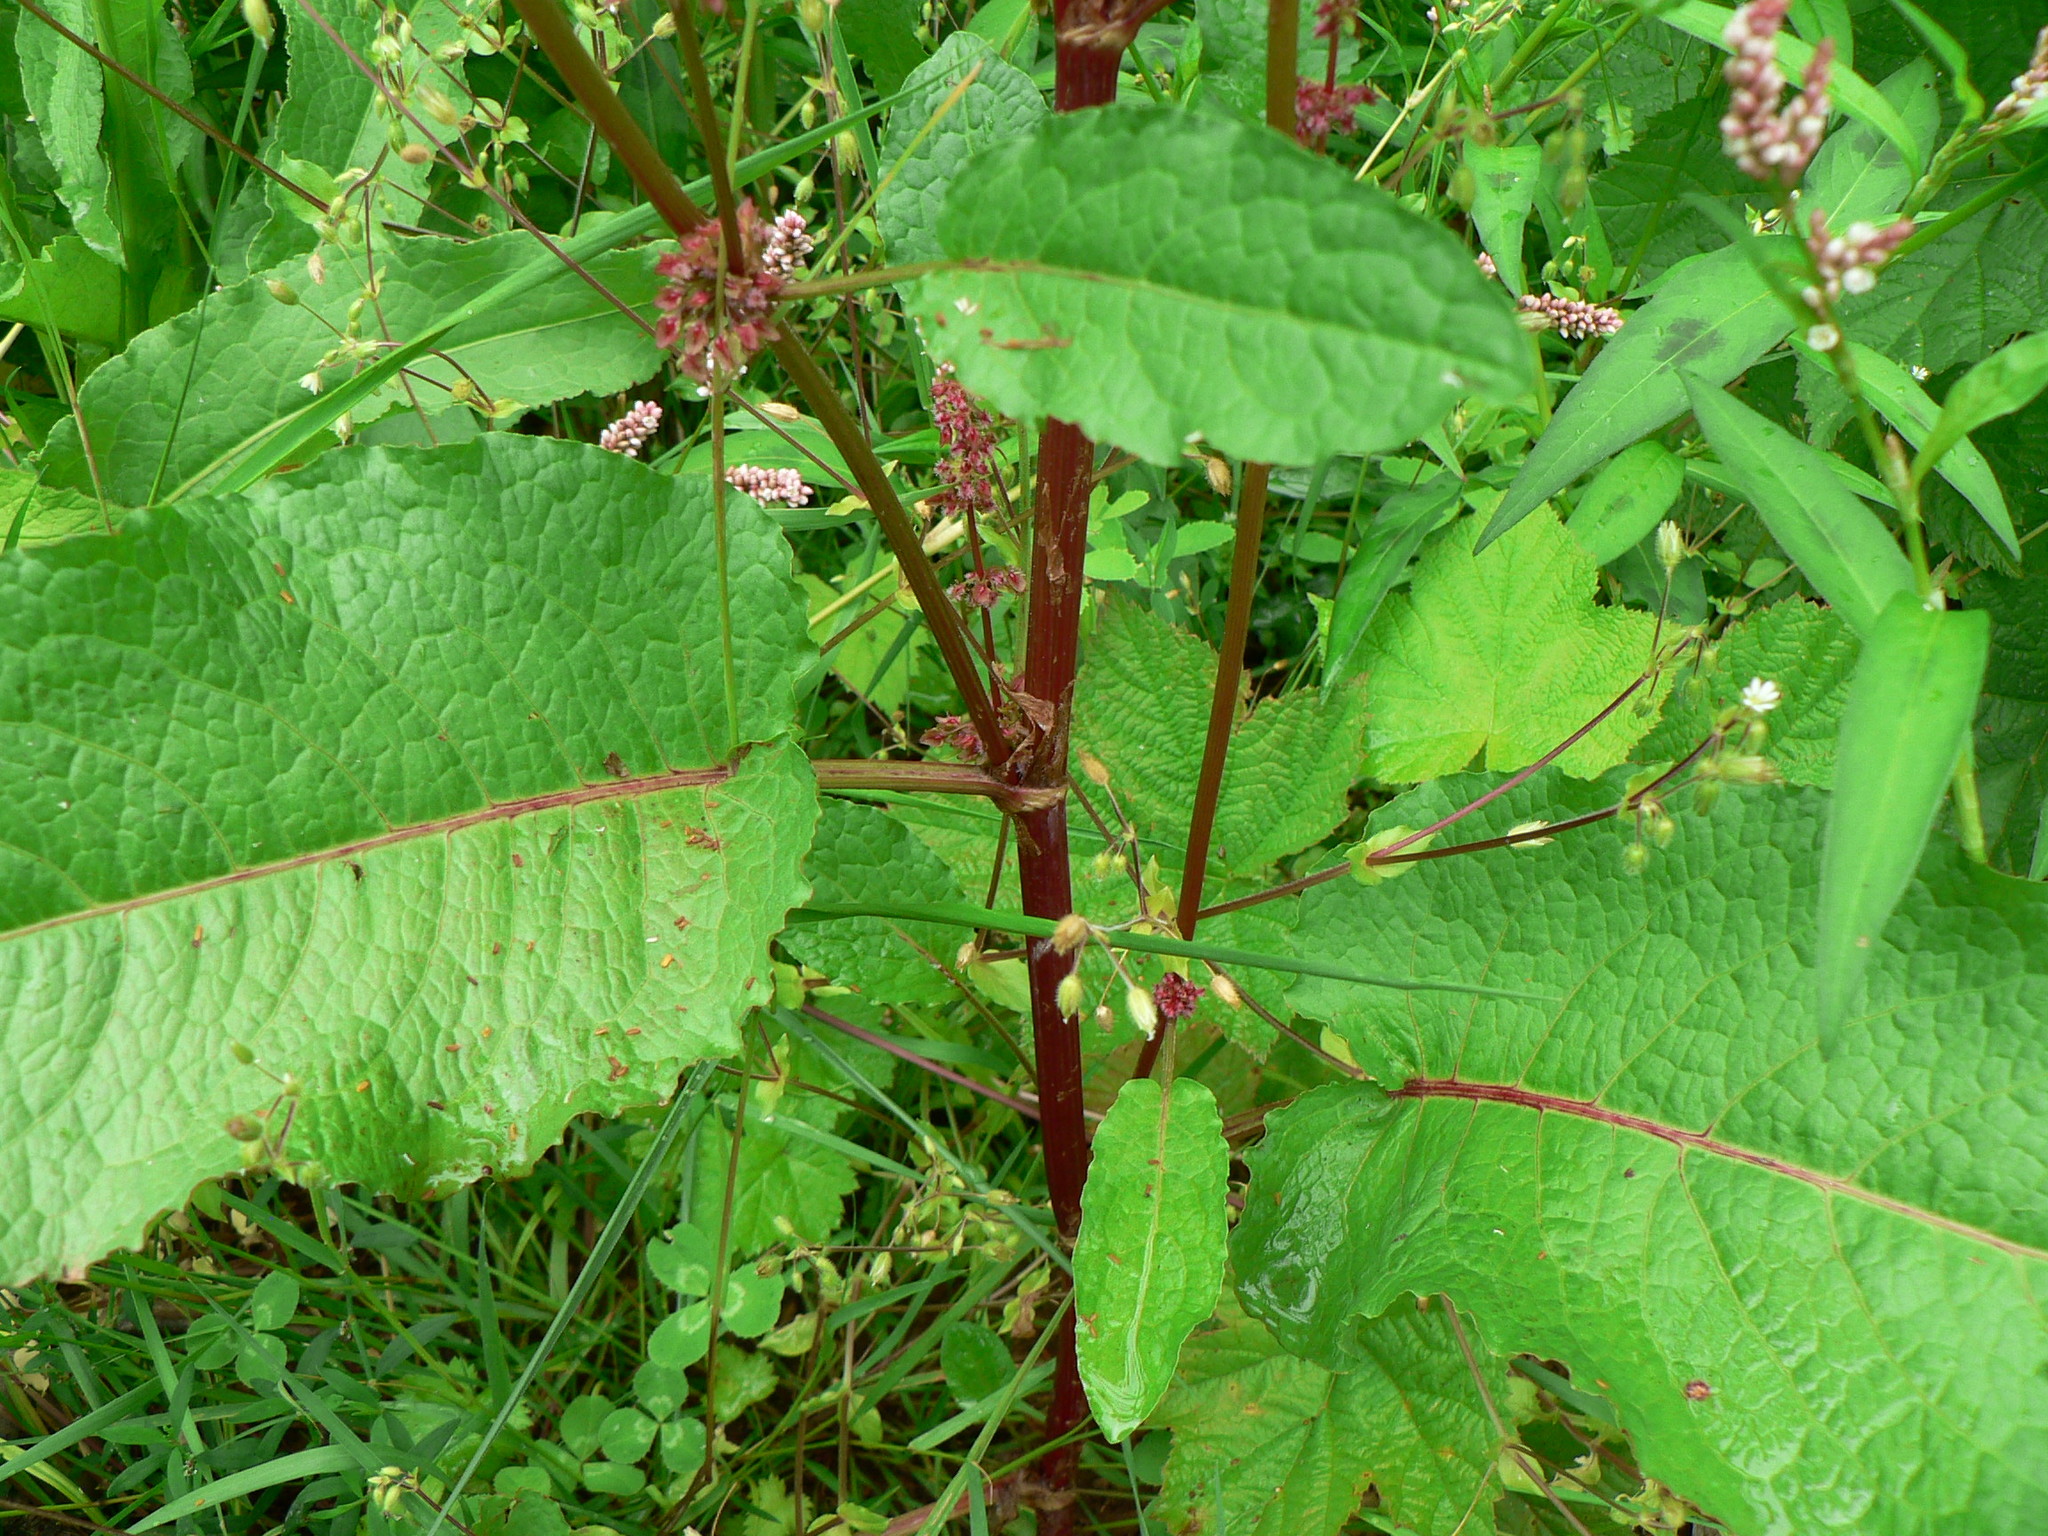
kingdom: Plantae
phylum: Tracheophyta
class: Magnoliopsida
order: Caryophyllales
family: Polygonaceae
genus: Rumex
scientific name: Rumex obtusifolius
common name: Bitter dock
